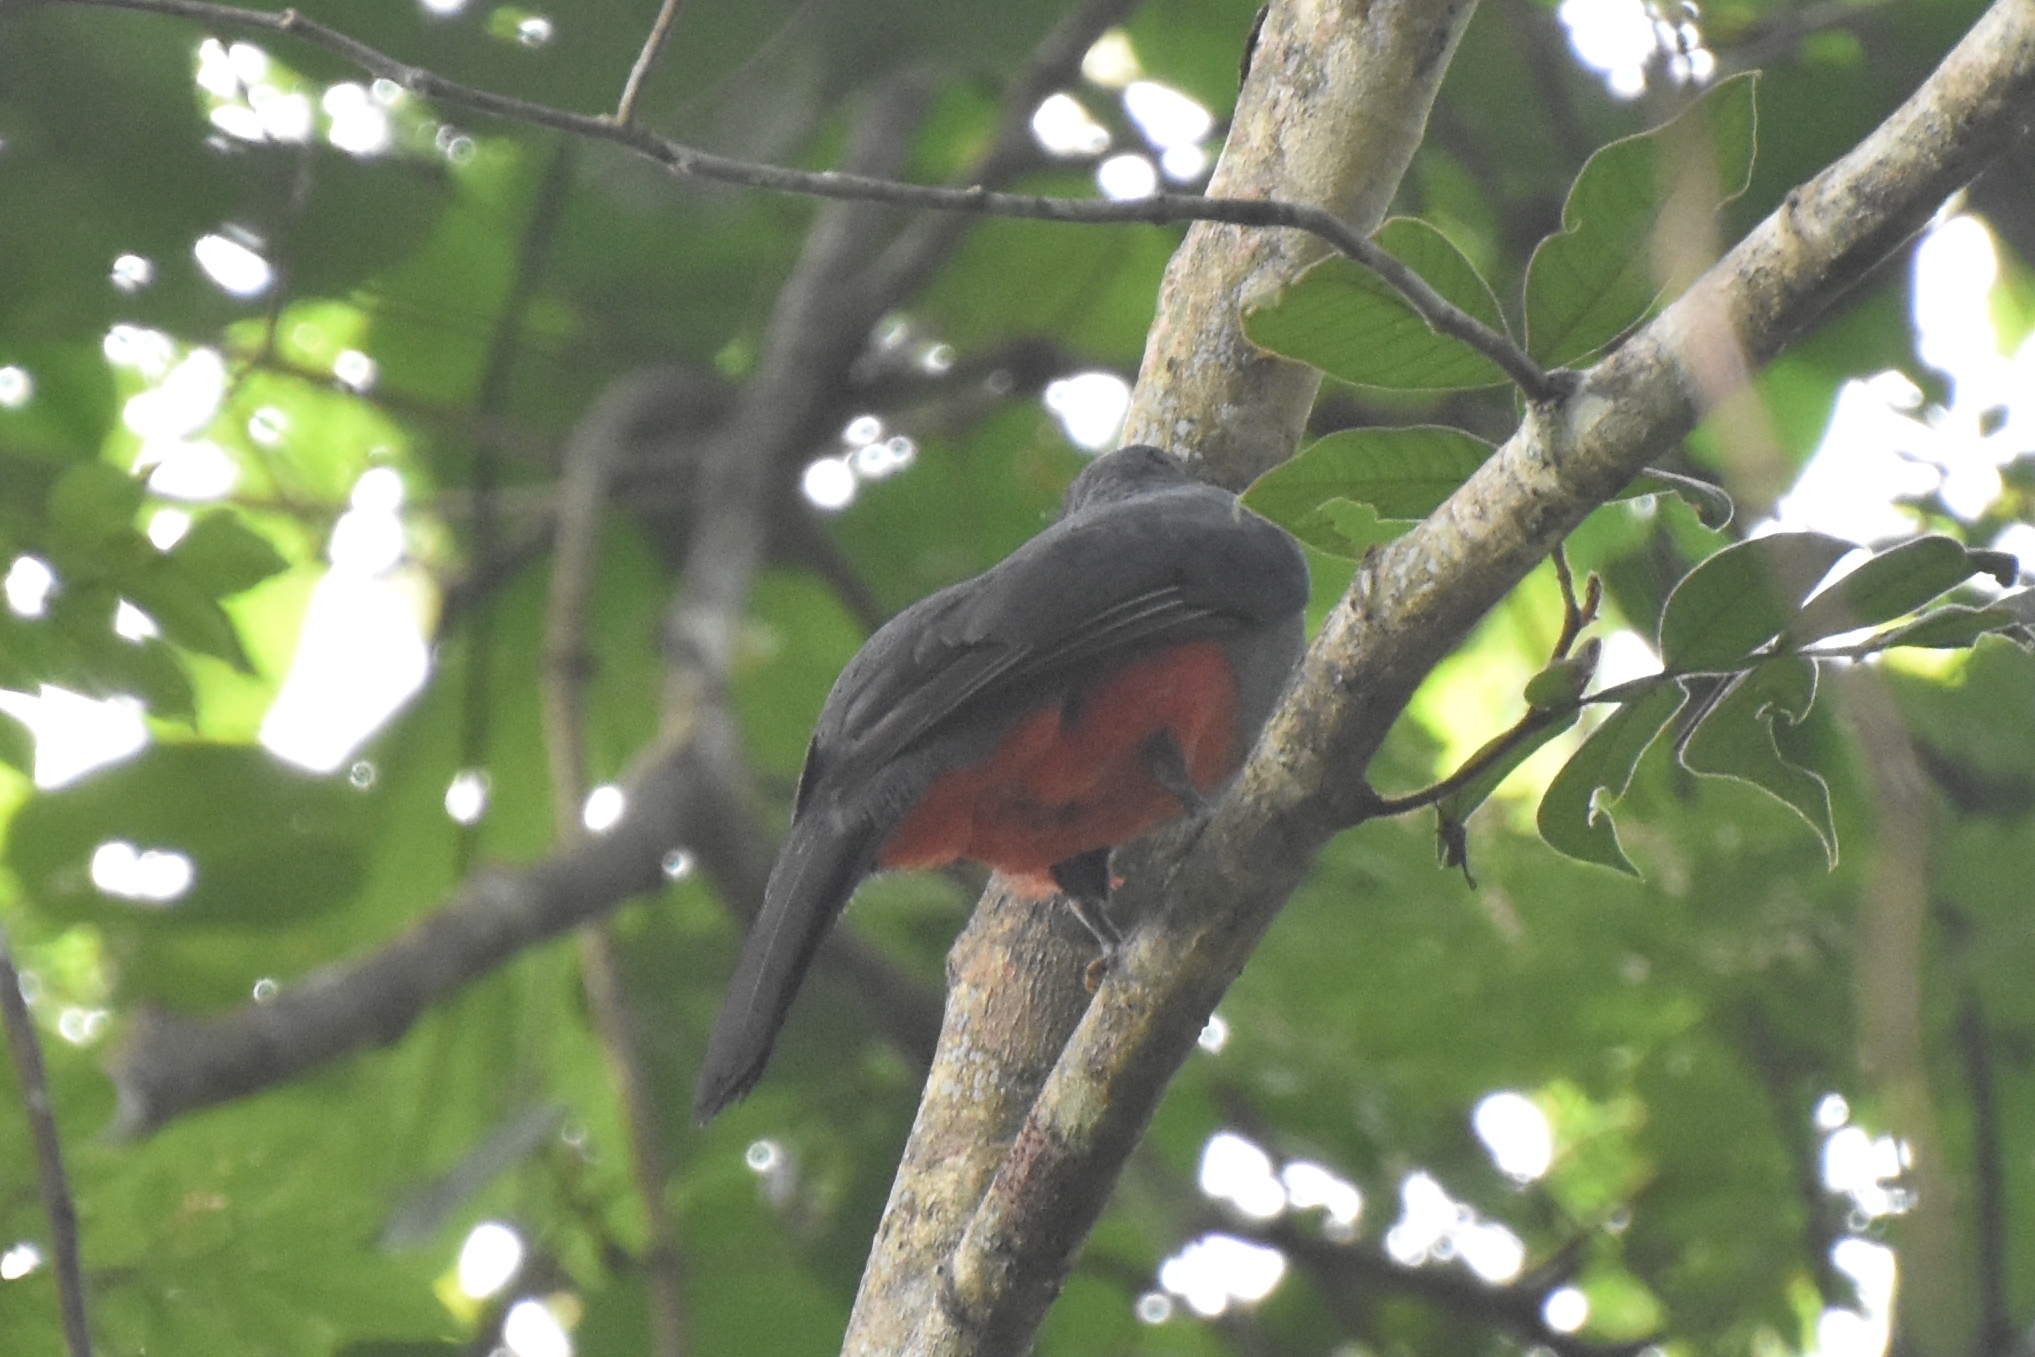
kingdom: Animalia
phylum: Chordata
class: Aves
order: Trogoniformes
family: Trogonidae
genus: Trogon
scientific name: Trogon massena
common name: Slaty-tailed trogon
